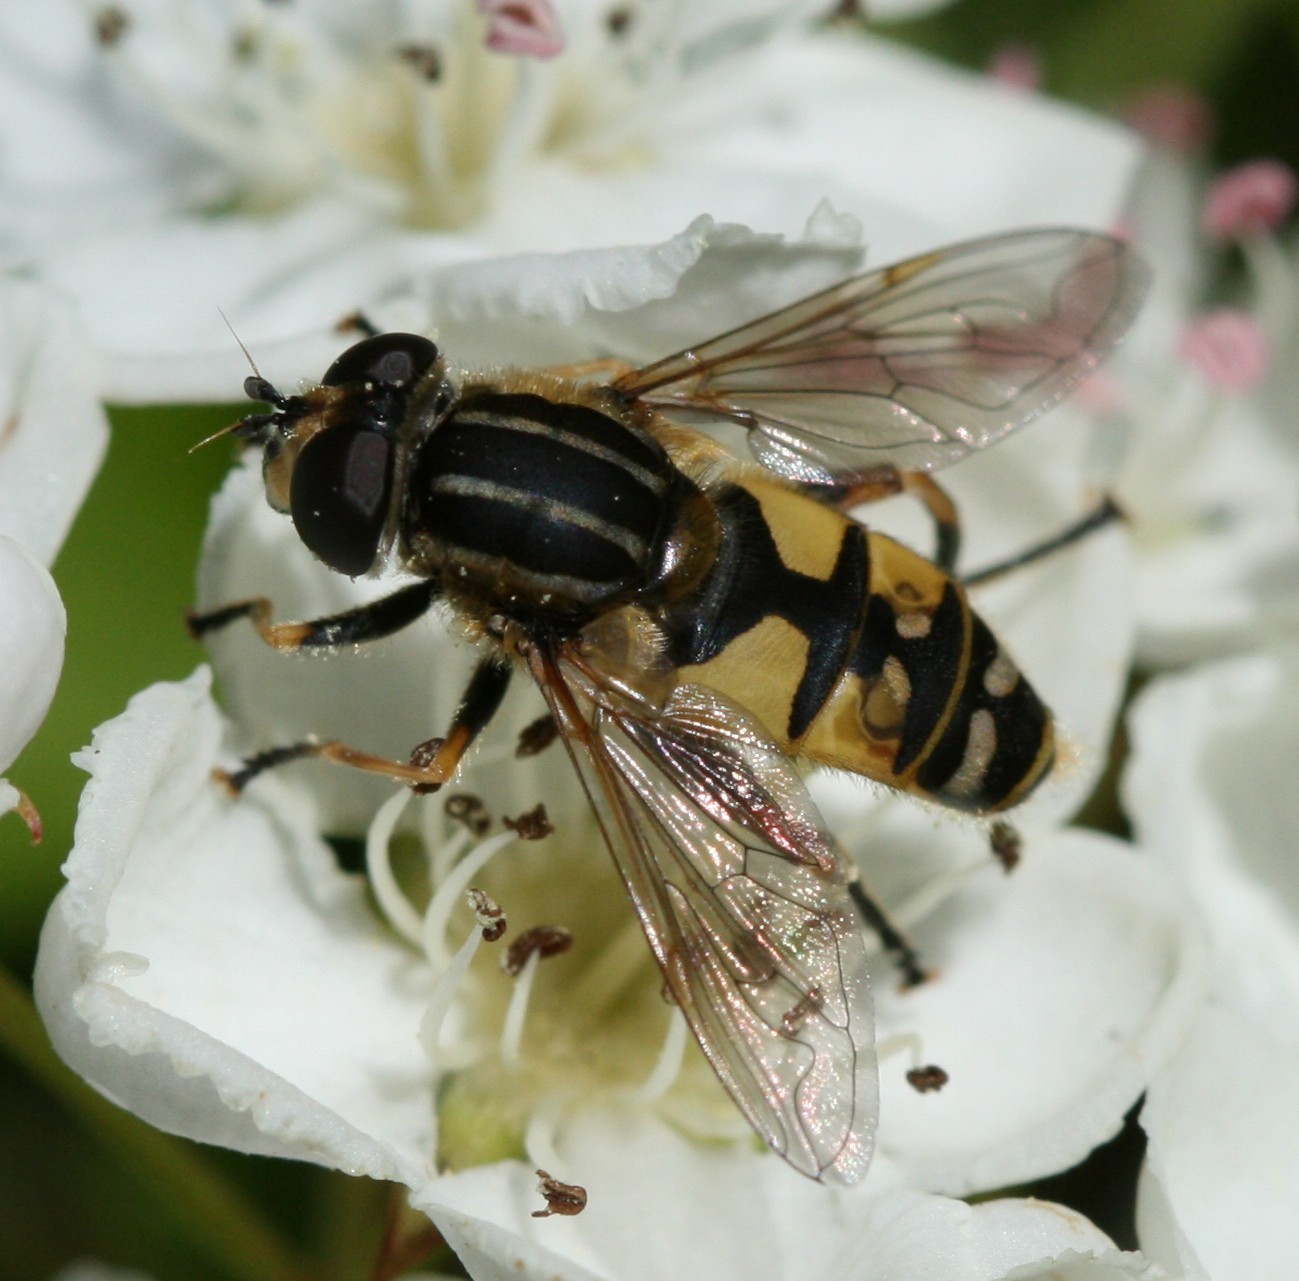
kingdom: Animalia
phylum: Arthropoda
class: Insecta
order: Diptera
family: Syrphidae
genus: Helophilus
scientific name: Helophilus pendulus
